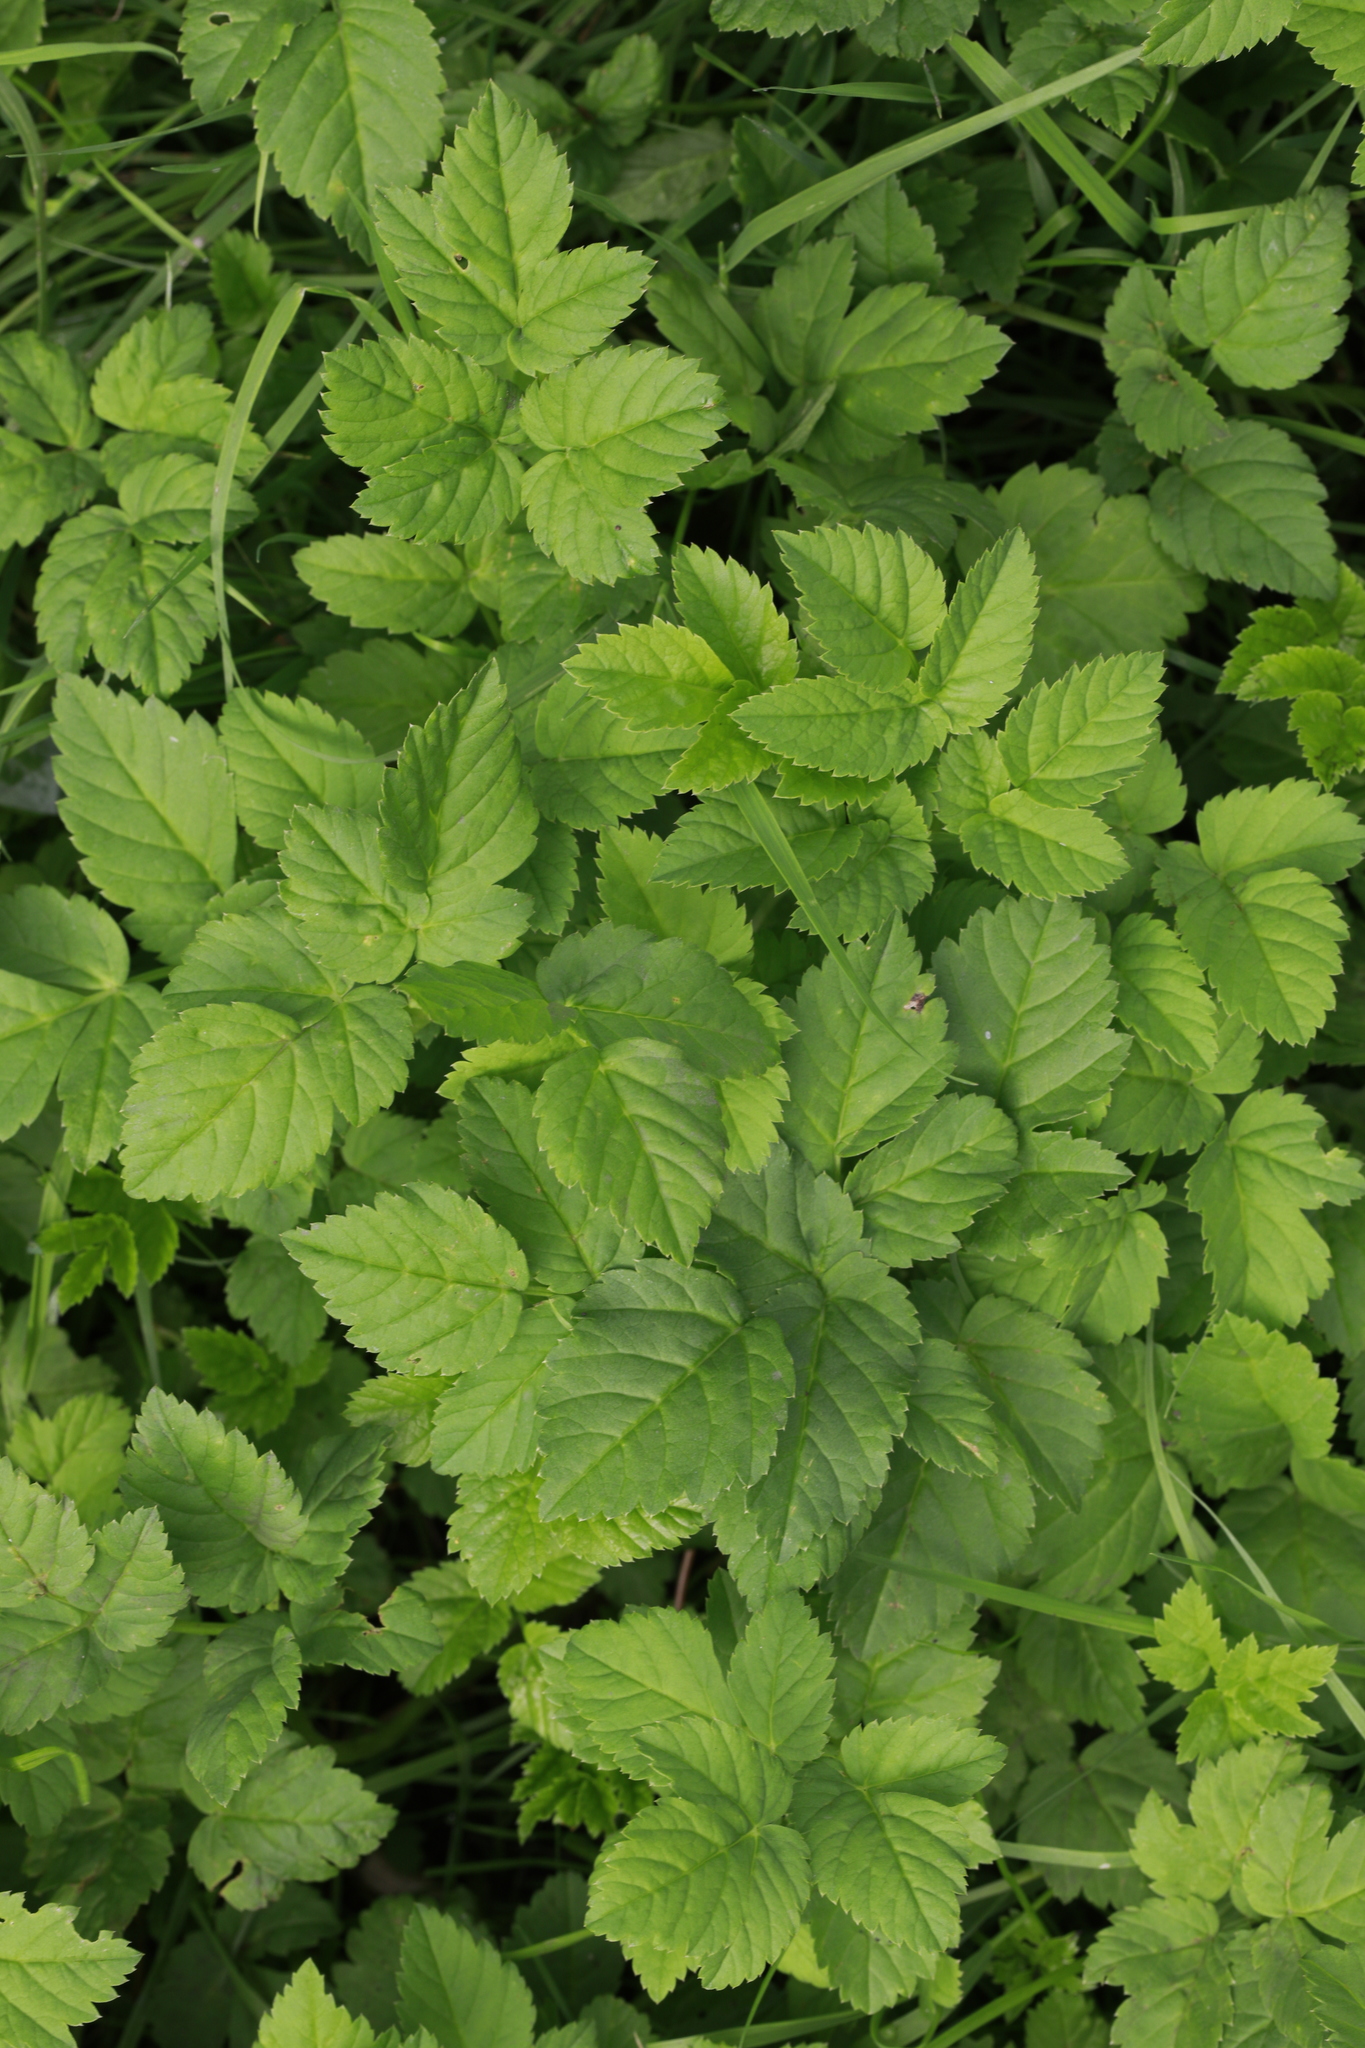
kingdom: Plantae
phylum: Tracheophyta
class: Magnoliopsida
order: Apiales
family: Apiaceae
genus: Aegopodium
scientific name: Aegopodium podagraria
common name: Ground-elder
